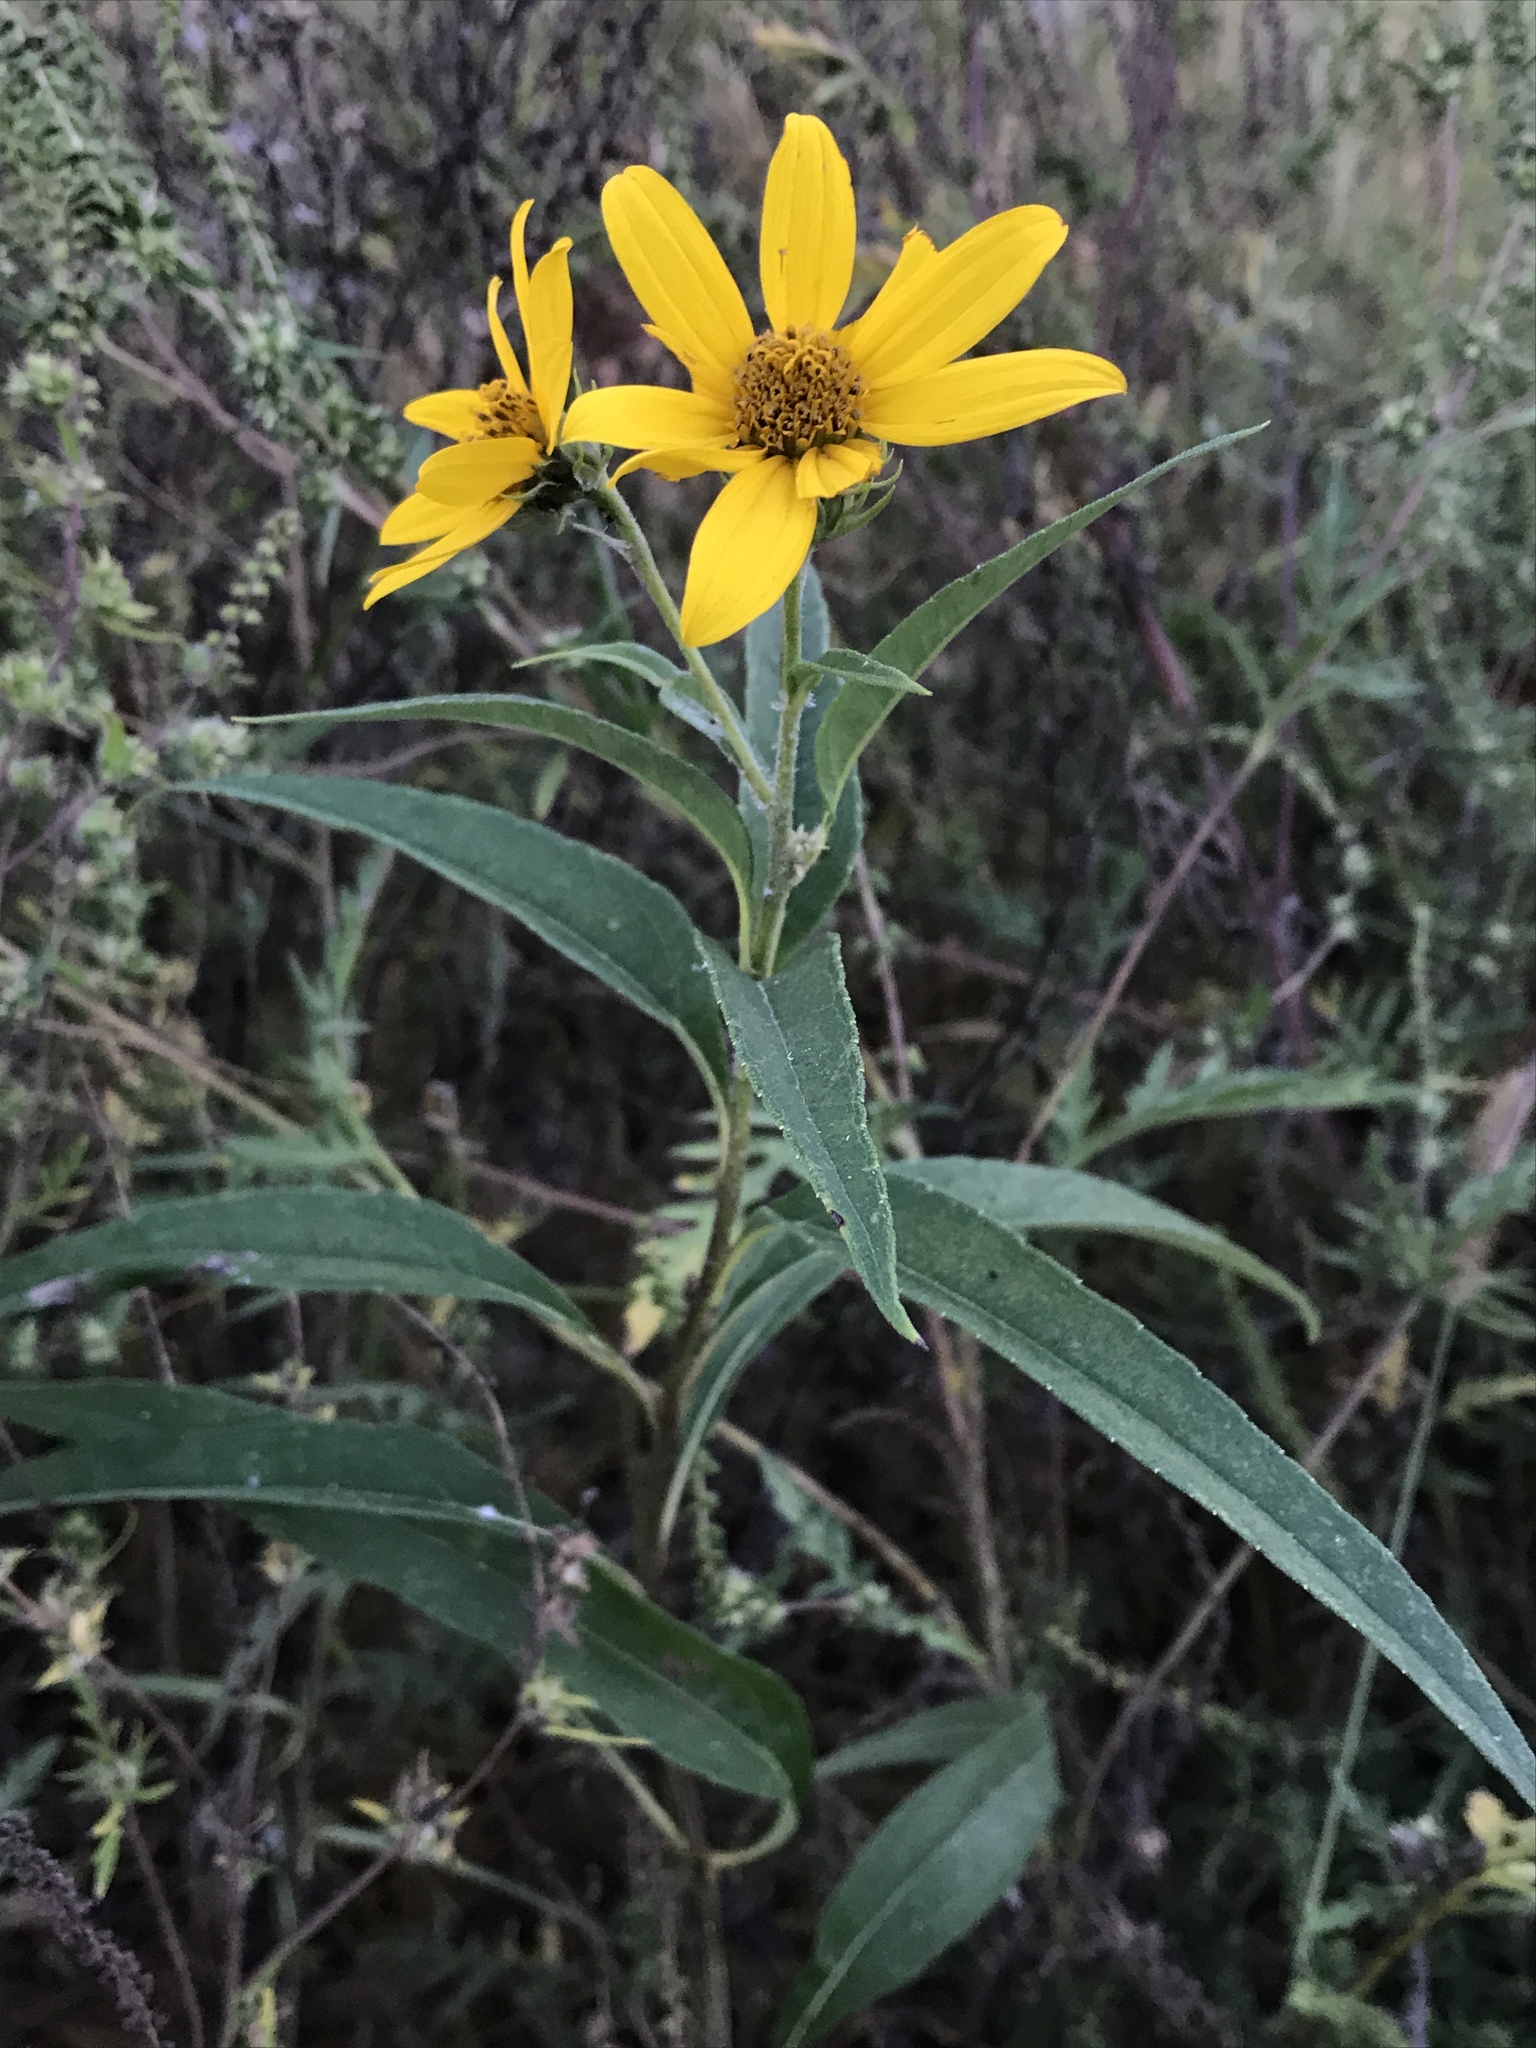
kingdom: Plantae
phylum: Tracheophyta
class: Magnoliopsida
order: Asterales
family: Asteraceae
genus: Helianthus
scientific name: Helianthus grosseserratus
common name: Sawtooth sunflower
